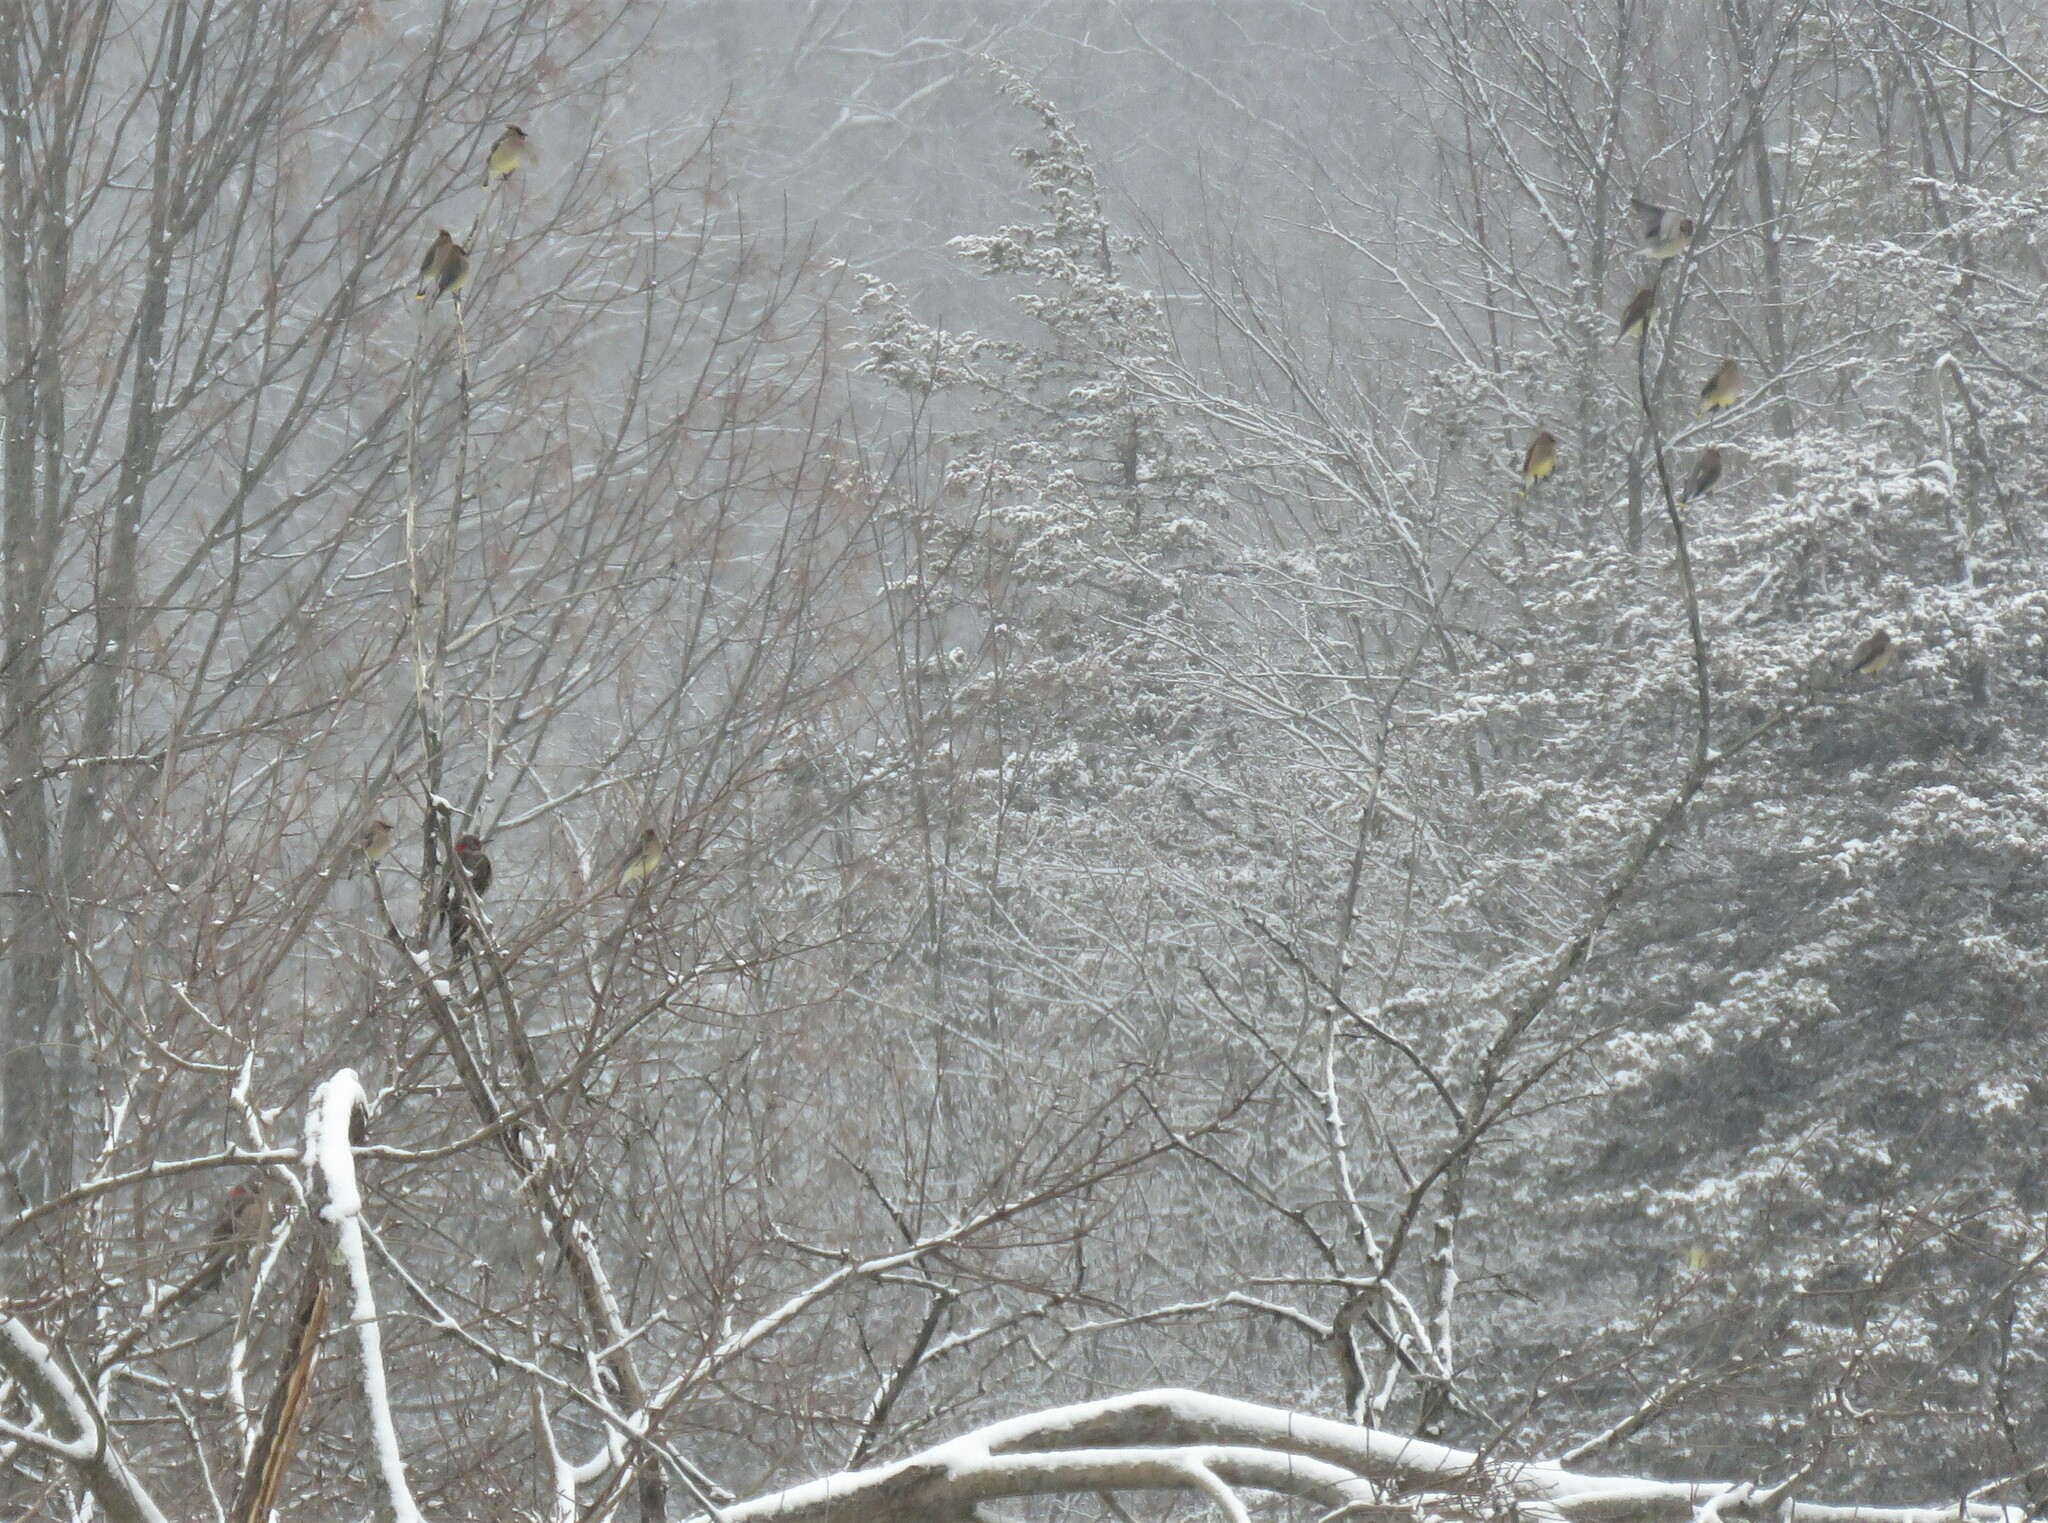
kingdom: Animalia
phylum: Chordata
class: Aves
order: Passeriformes
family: Bombycillidae
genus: Bombycilla
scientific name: Bombycilla cedrorum
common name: Cedar waxwing
